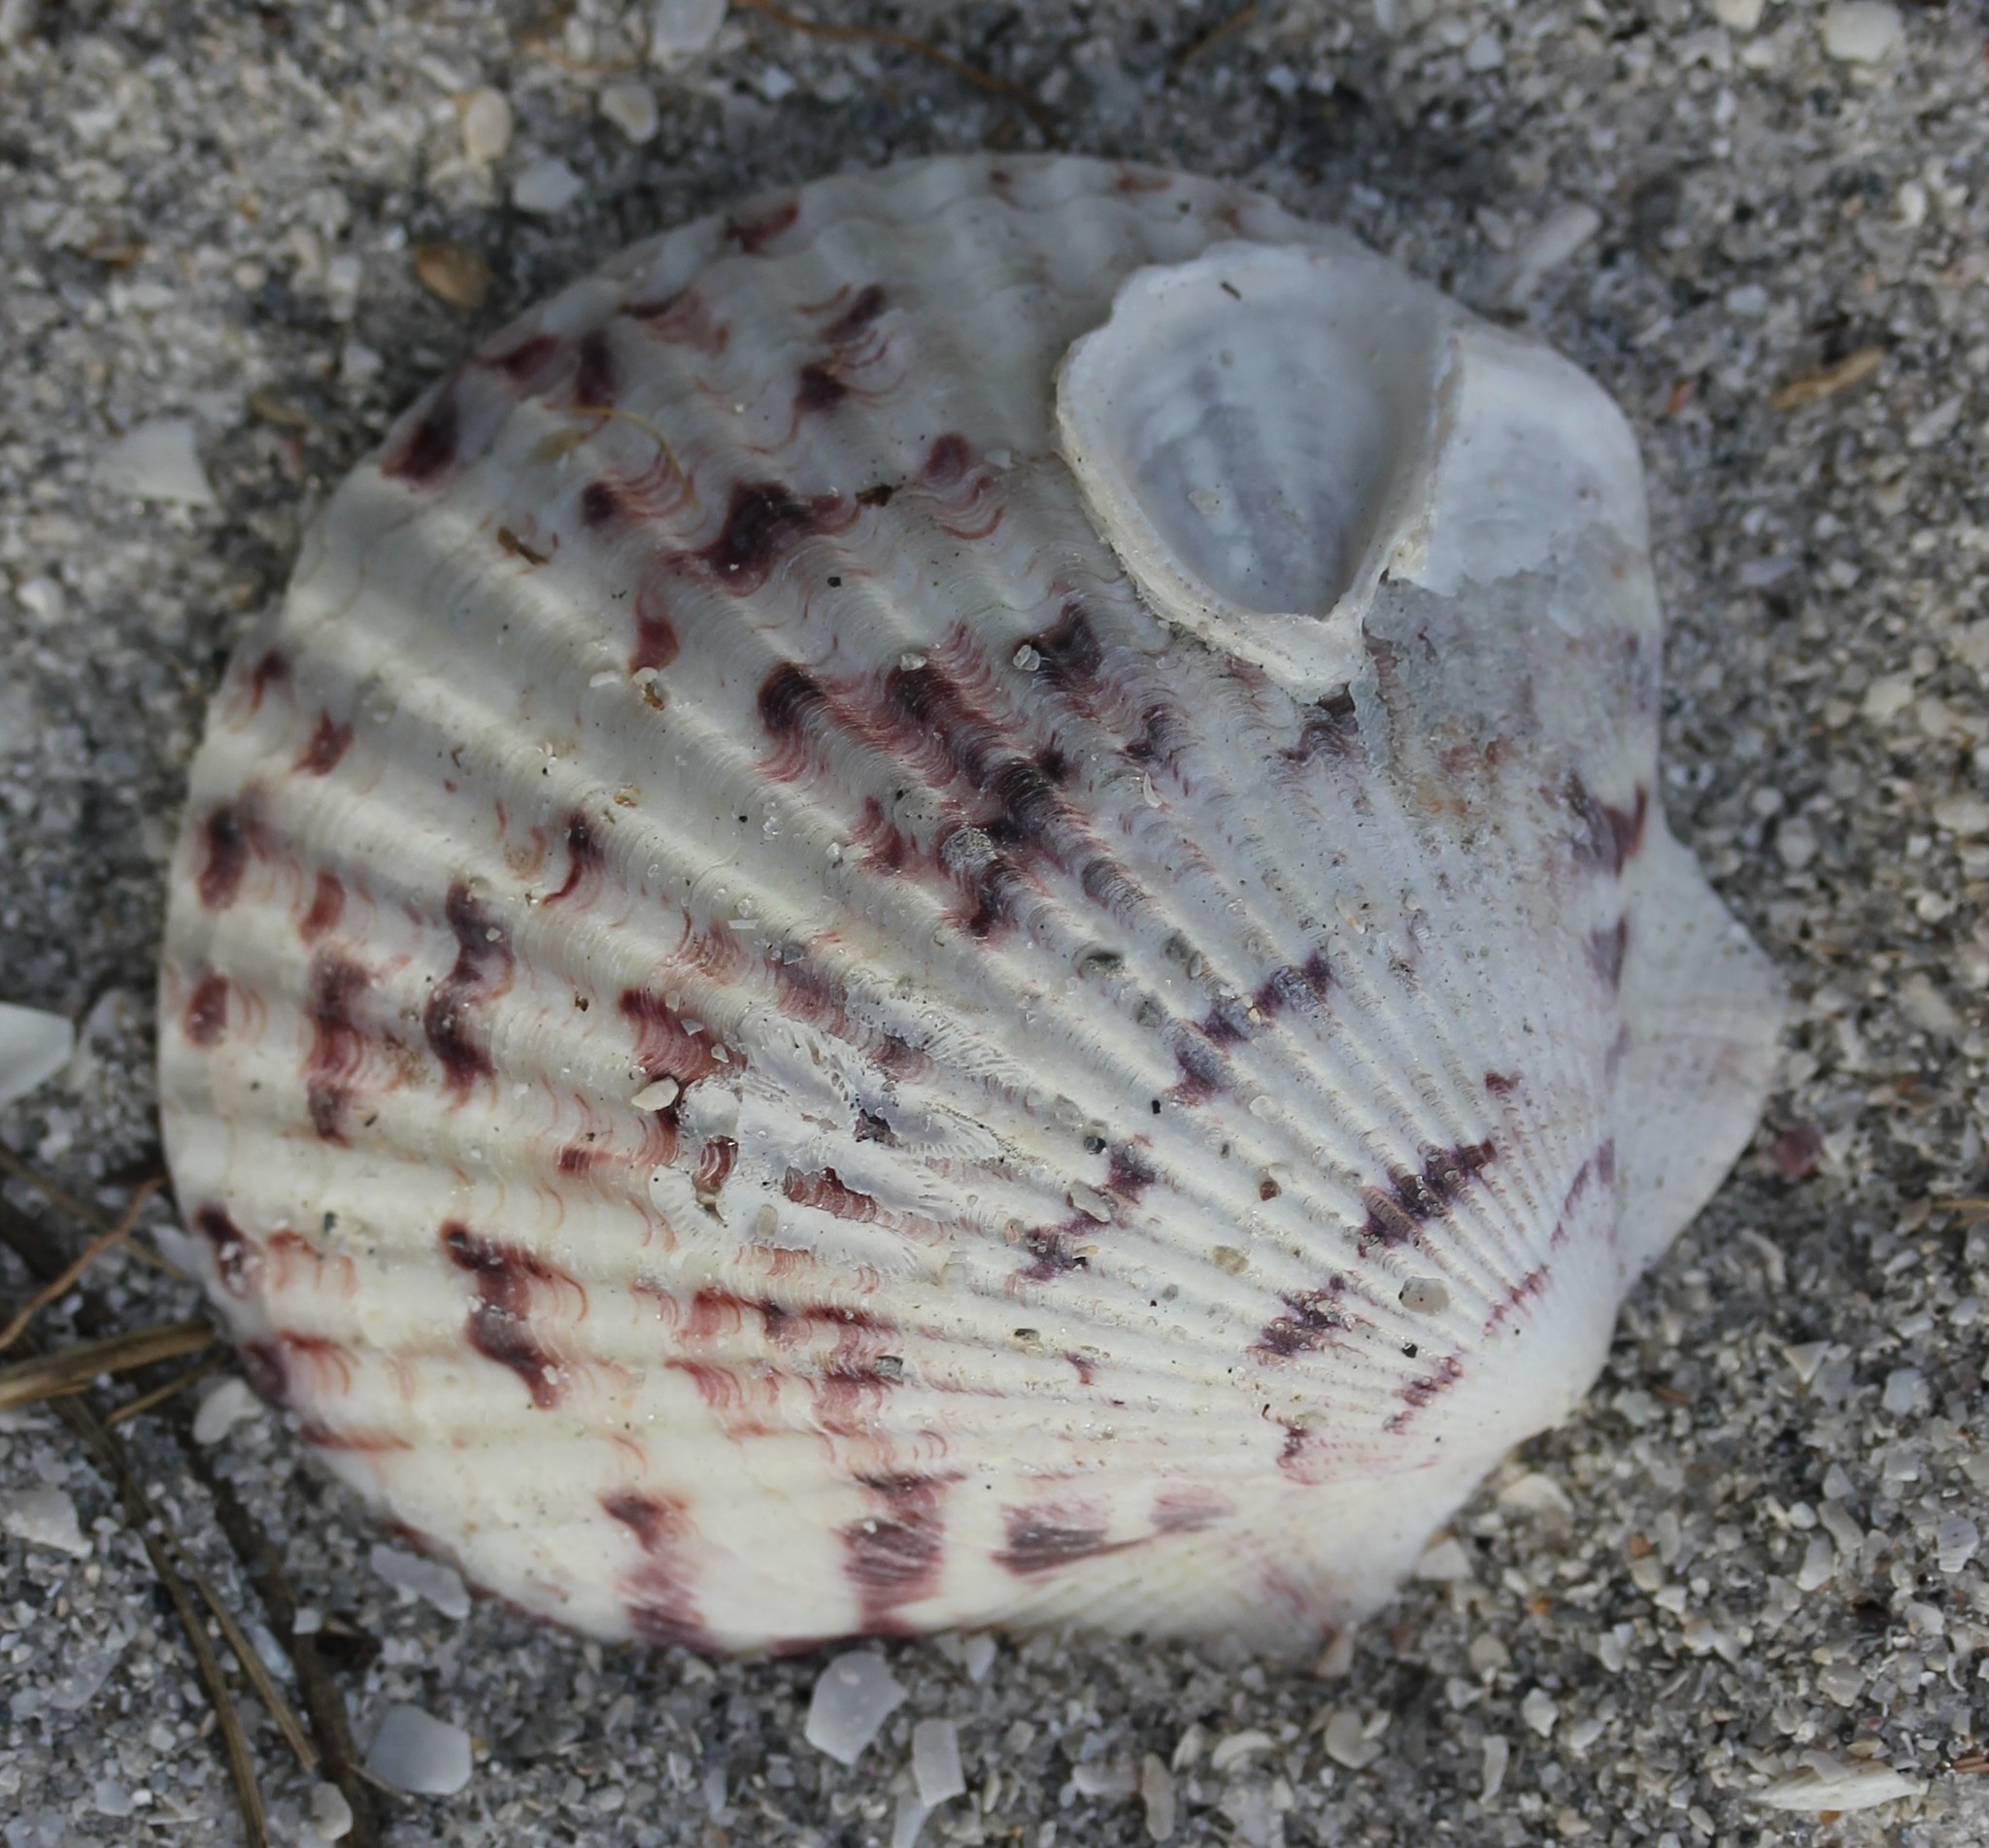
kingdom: Animalia
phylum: Mollusca
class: Bivalvia
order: Pectinida
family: Pectinidae
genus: Argopecten
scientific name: Argopecten gibbus
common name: Atlantic calico scallop
